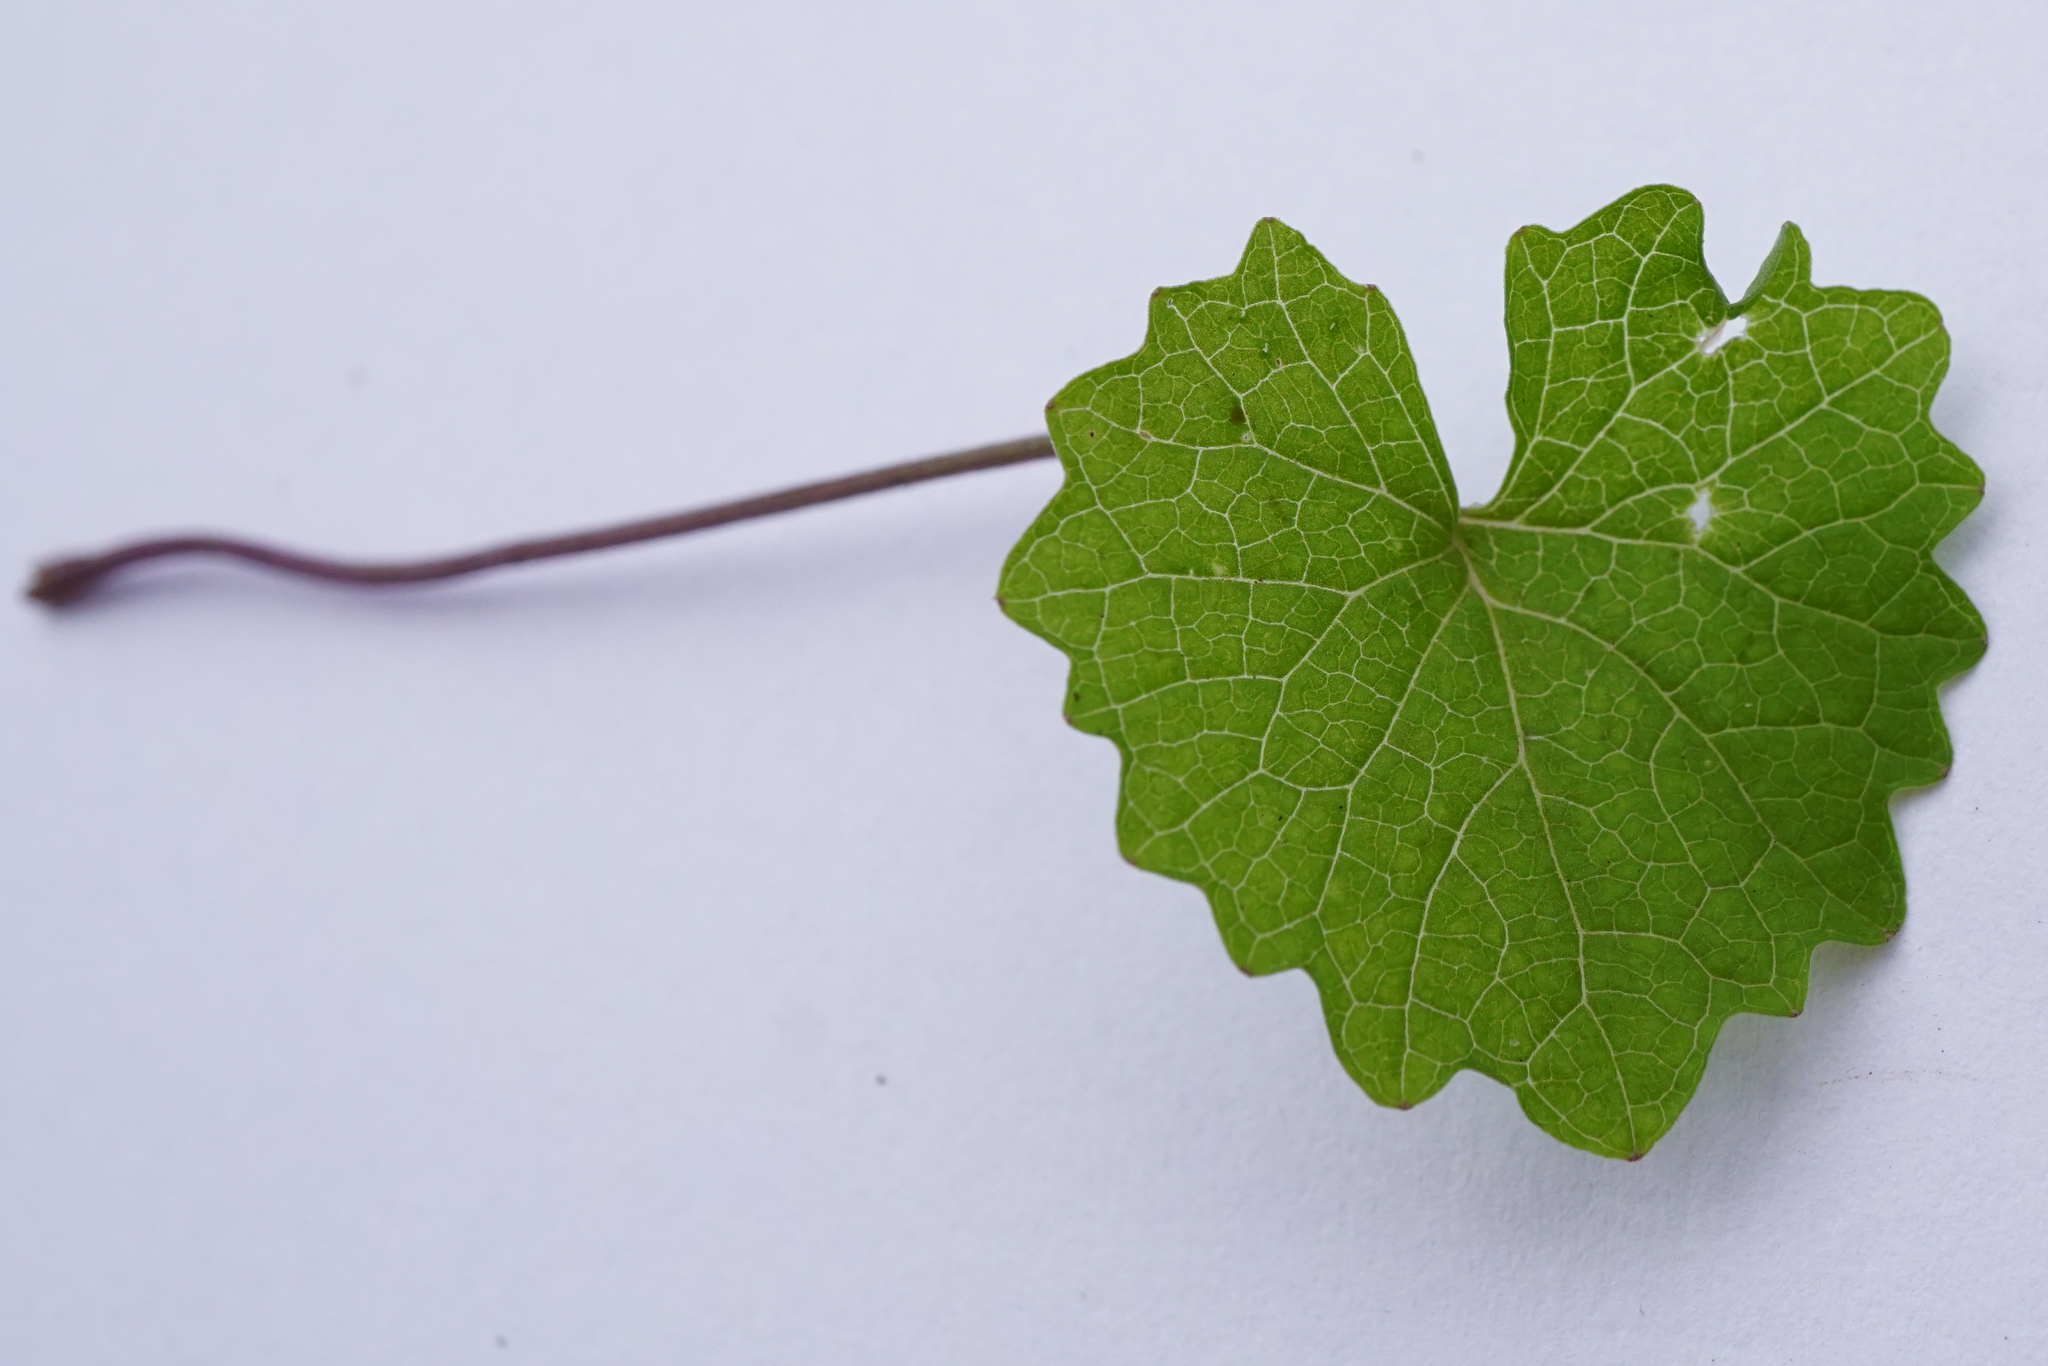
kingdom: Plantae
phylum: Tracheophyta
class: Magnoliopsida
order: Brassicales
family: Brassicaceae
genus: Alliaria
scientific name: Alliaria petiolata
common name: Garlic mustard
